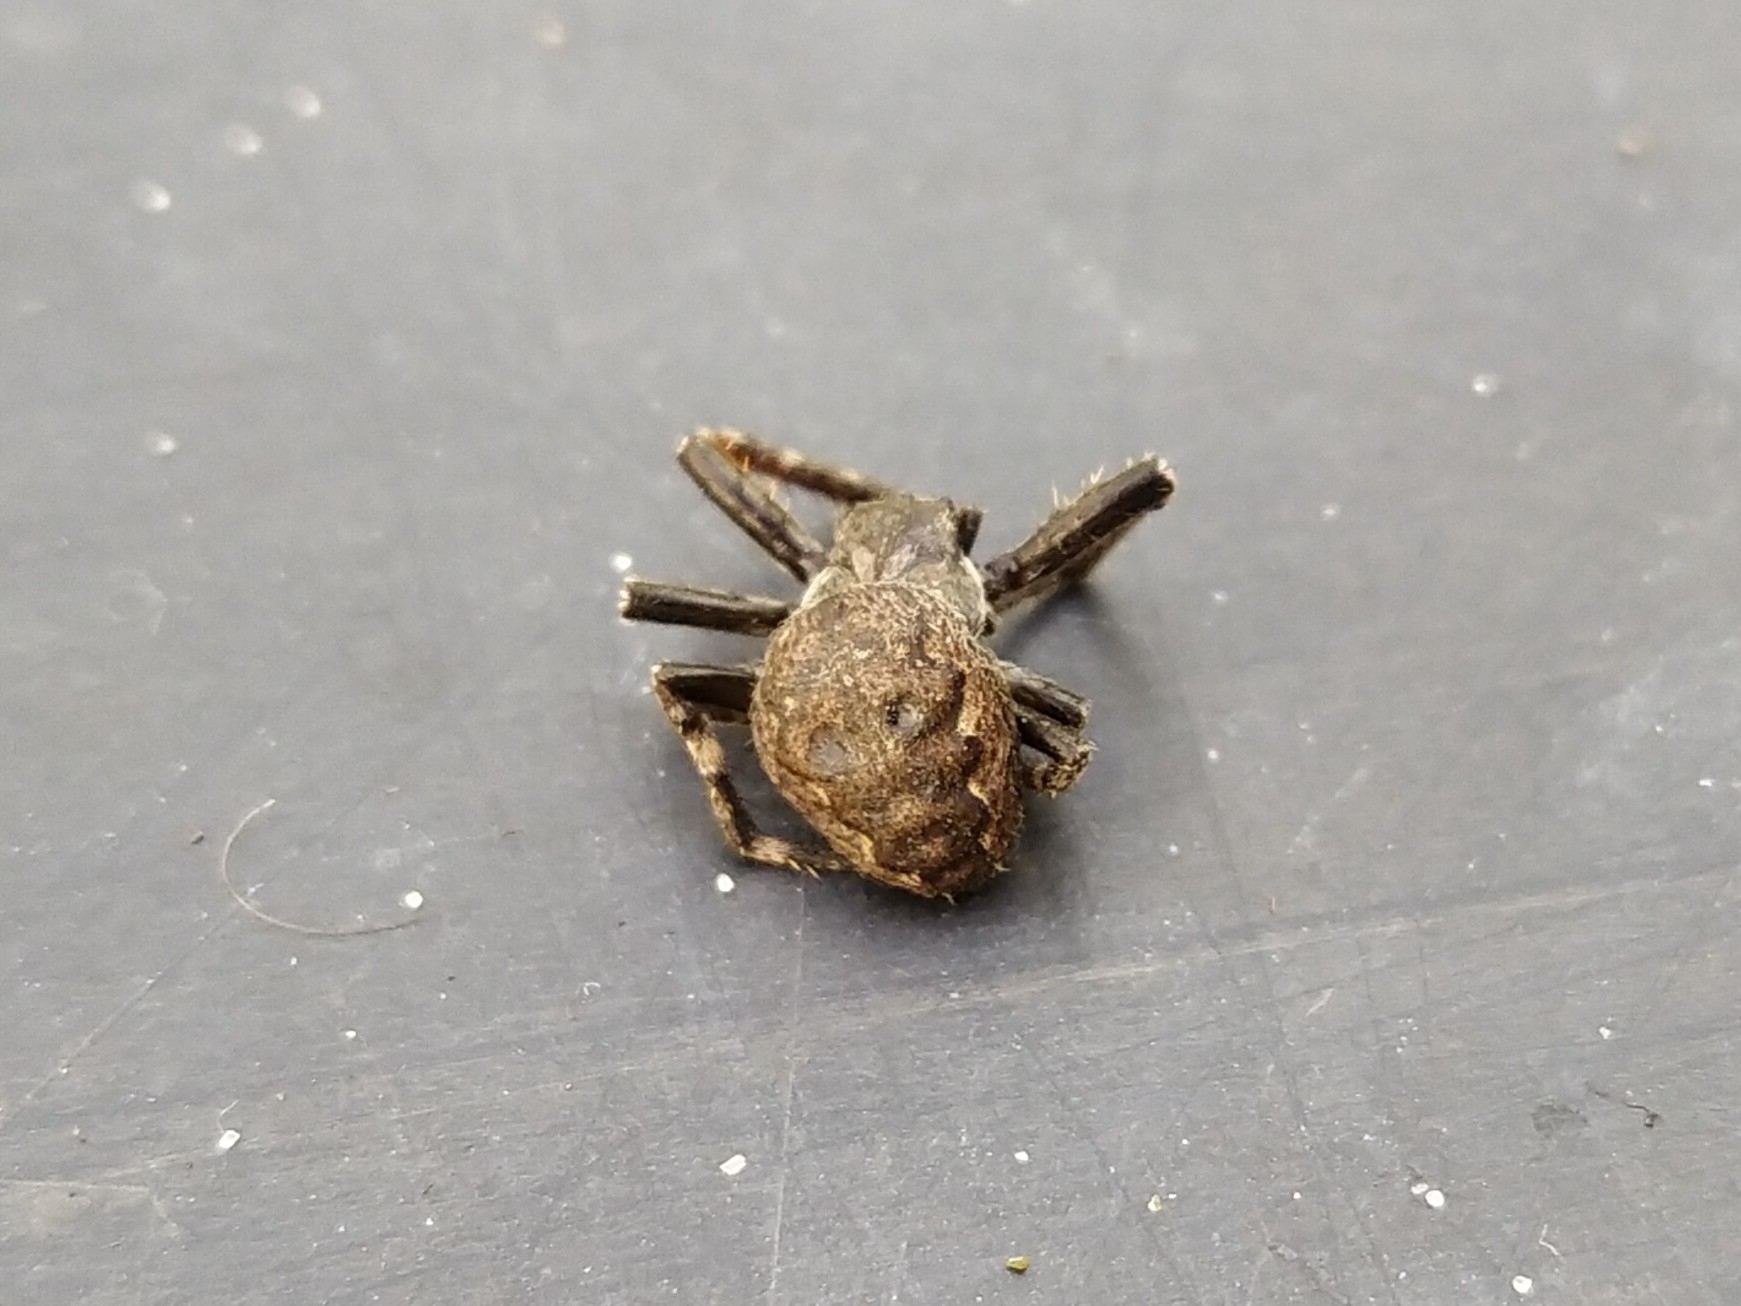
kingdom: Animalia
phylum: Arthropoda
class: Arachnida
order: Araneae
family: Araneidae
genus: Nuctenea
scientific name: Nuctenea umbratica
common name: Toad spider
